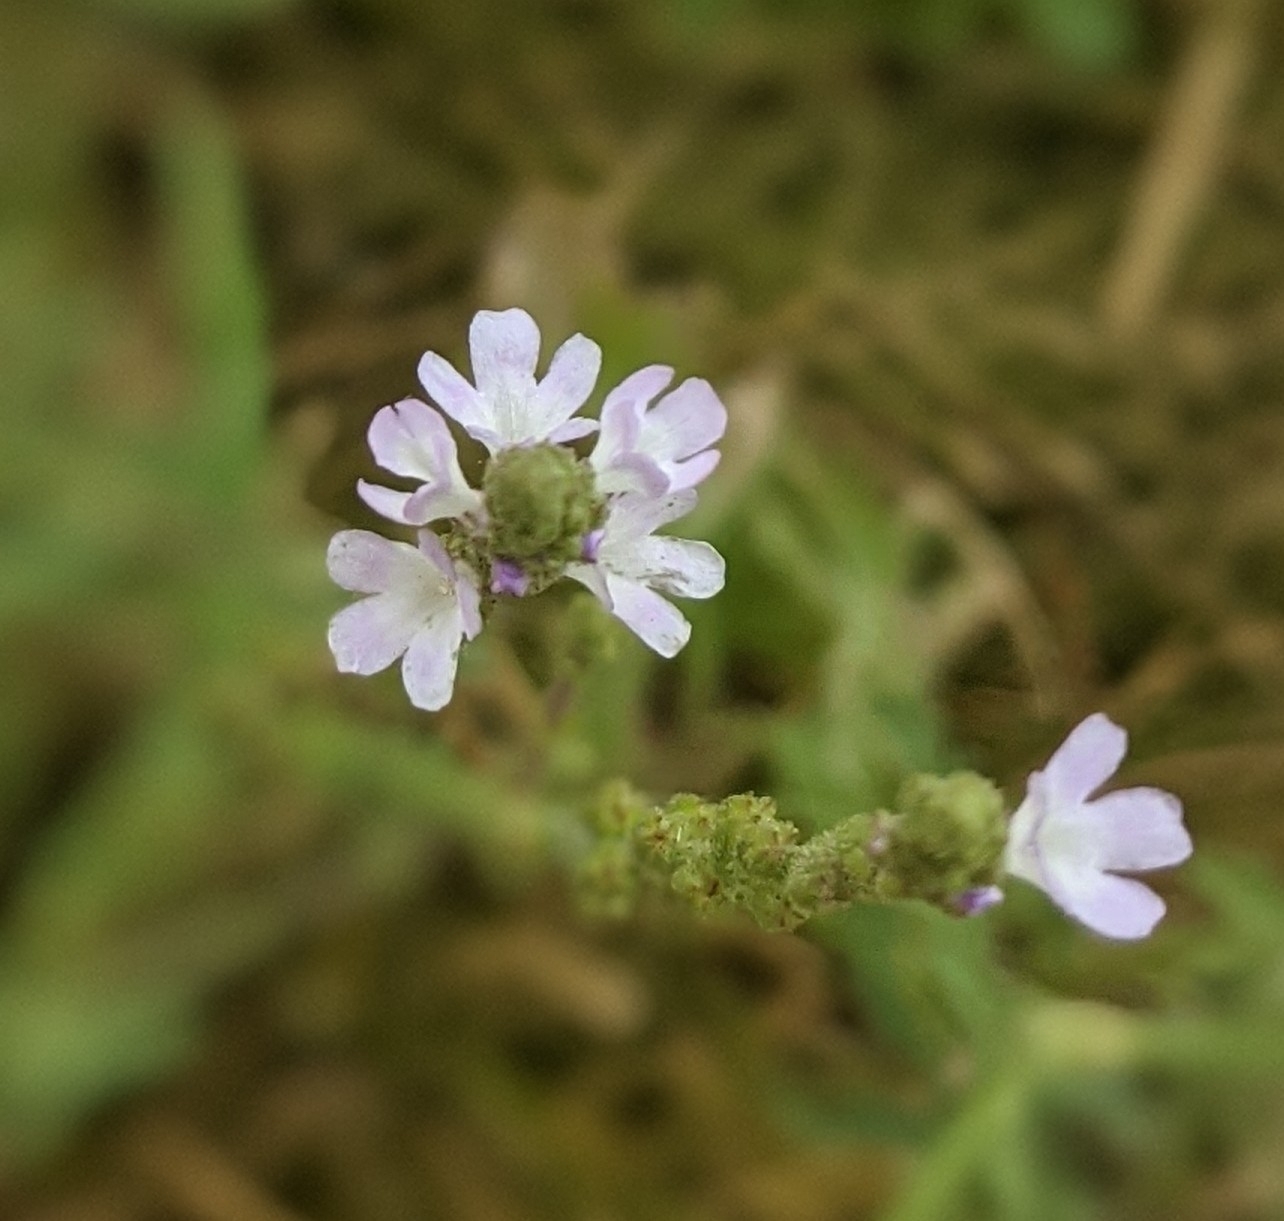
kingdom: Plantae
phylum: Tracheophyta
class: Magnoliopsida
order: Lamiales
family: Verbenaceae
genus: Verbena
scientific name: Verbena officinalis
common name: Vervain
